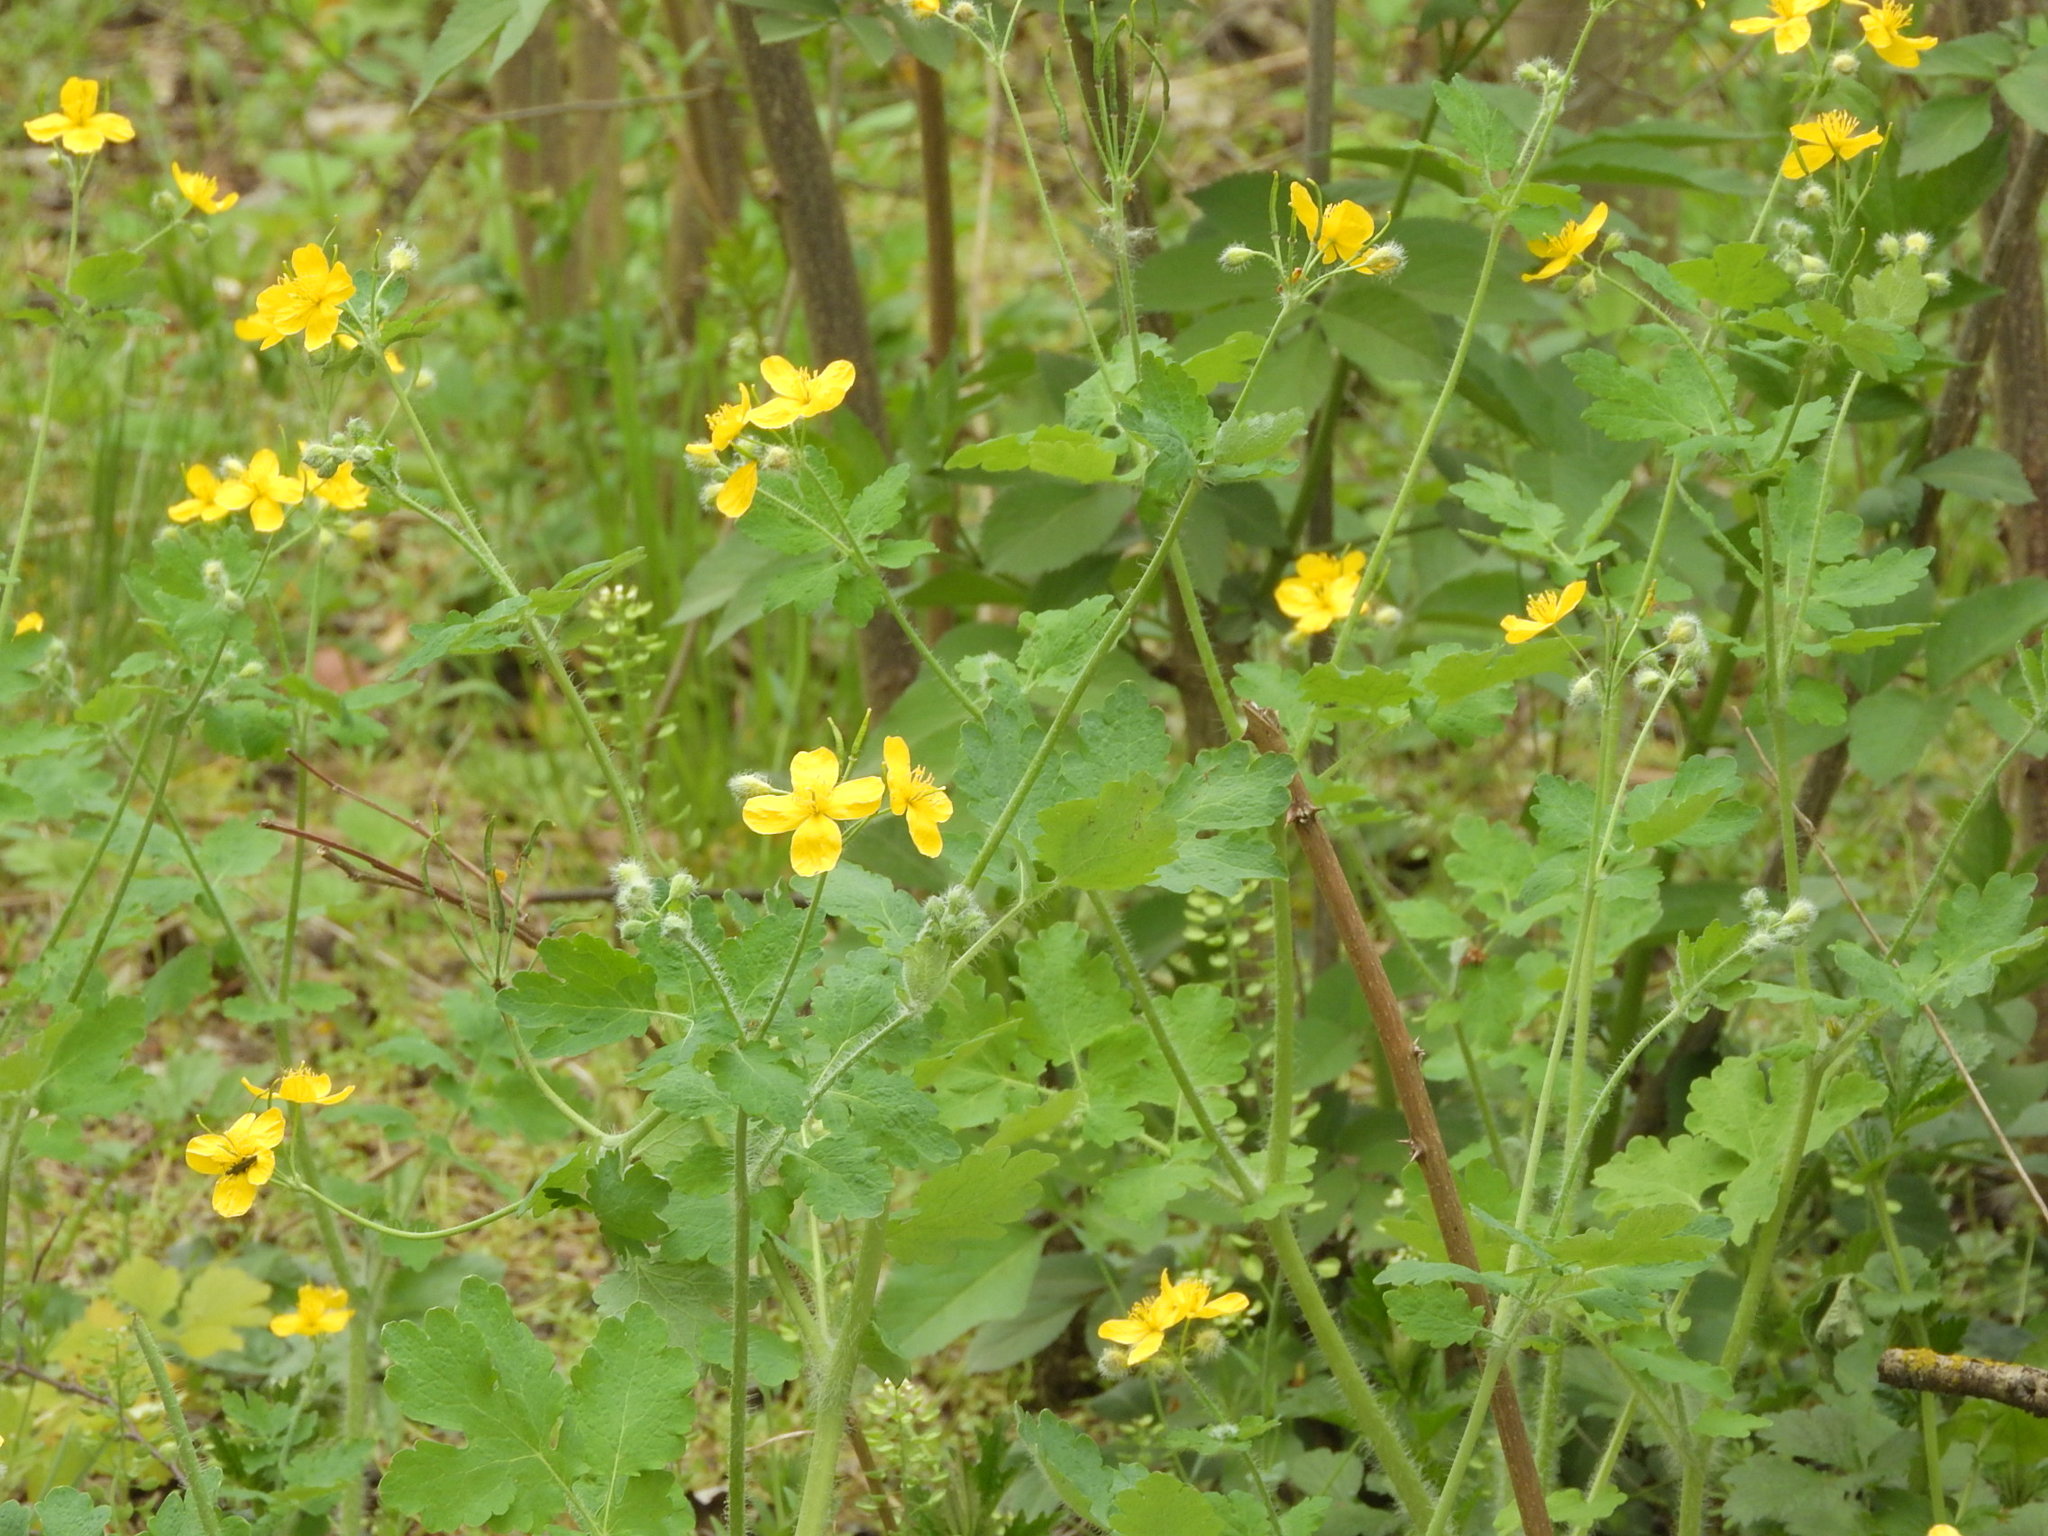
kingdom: Plantae
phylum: Tracheophyta
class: Magnoliopsida
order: Ranunculales
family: Papaveraceae
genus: Chelidonium
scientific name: Chelidonium majus
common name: Greater celandine
